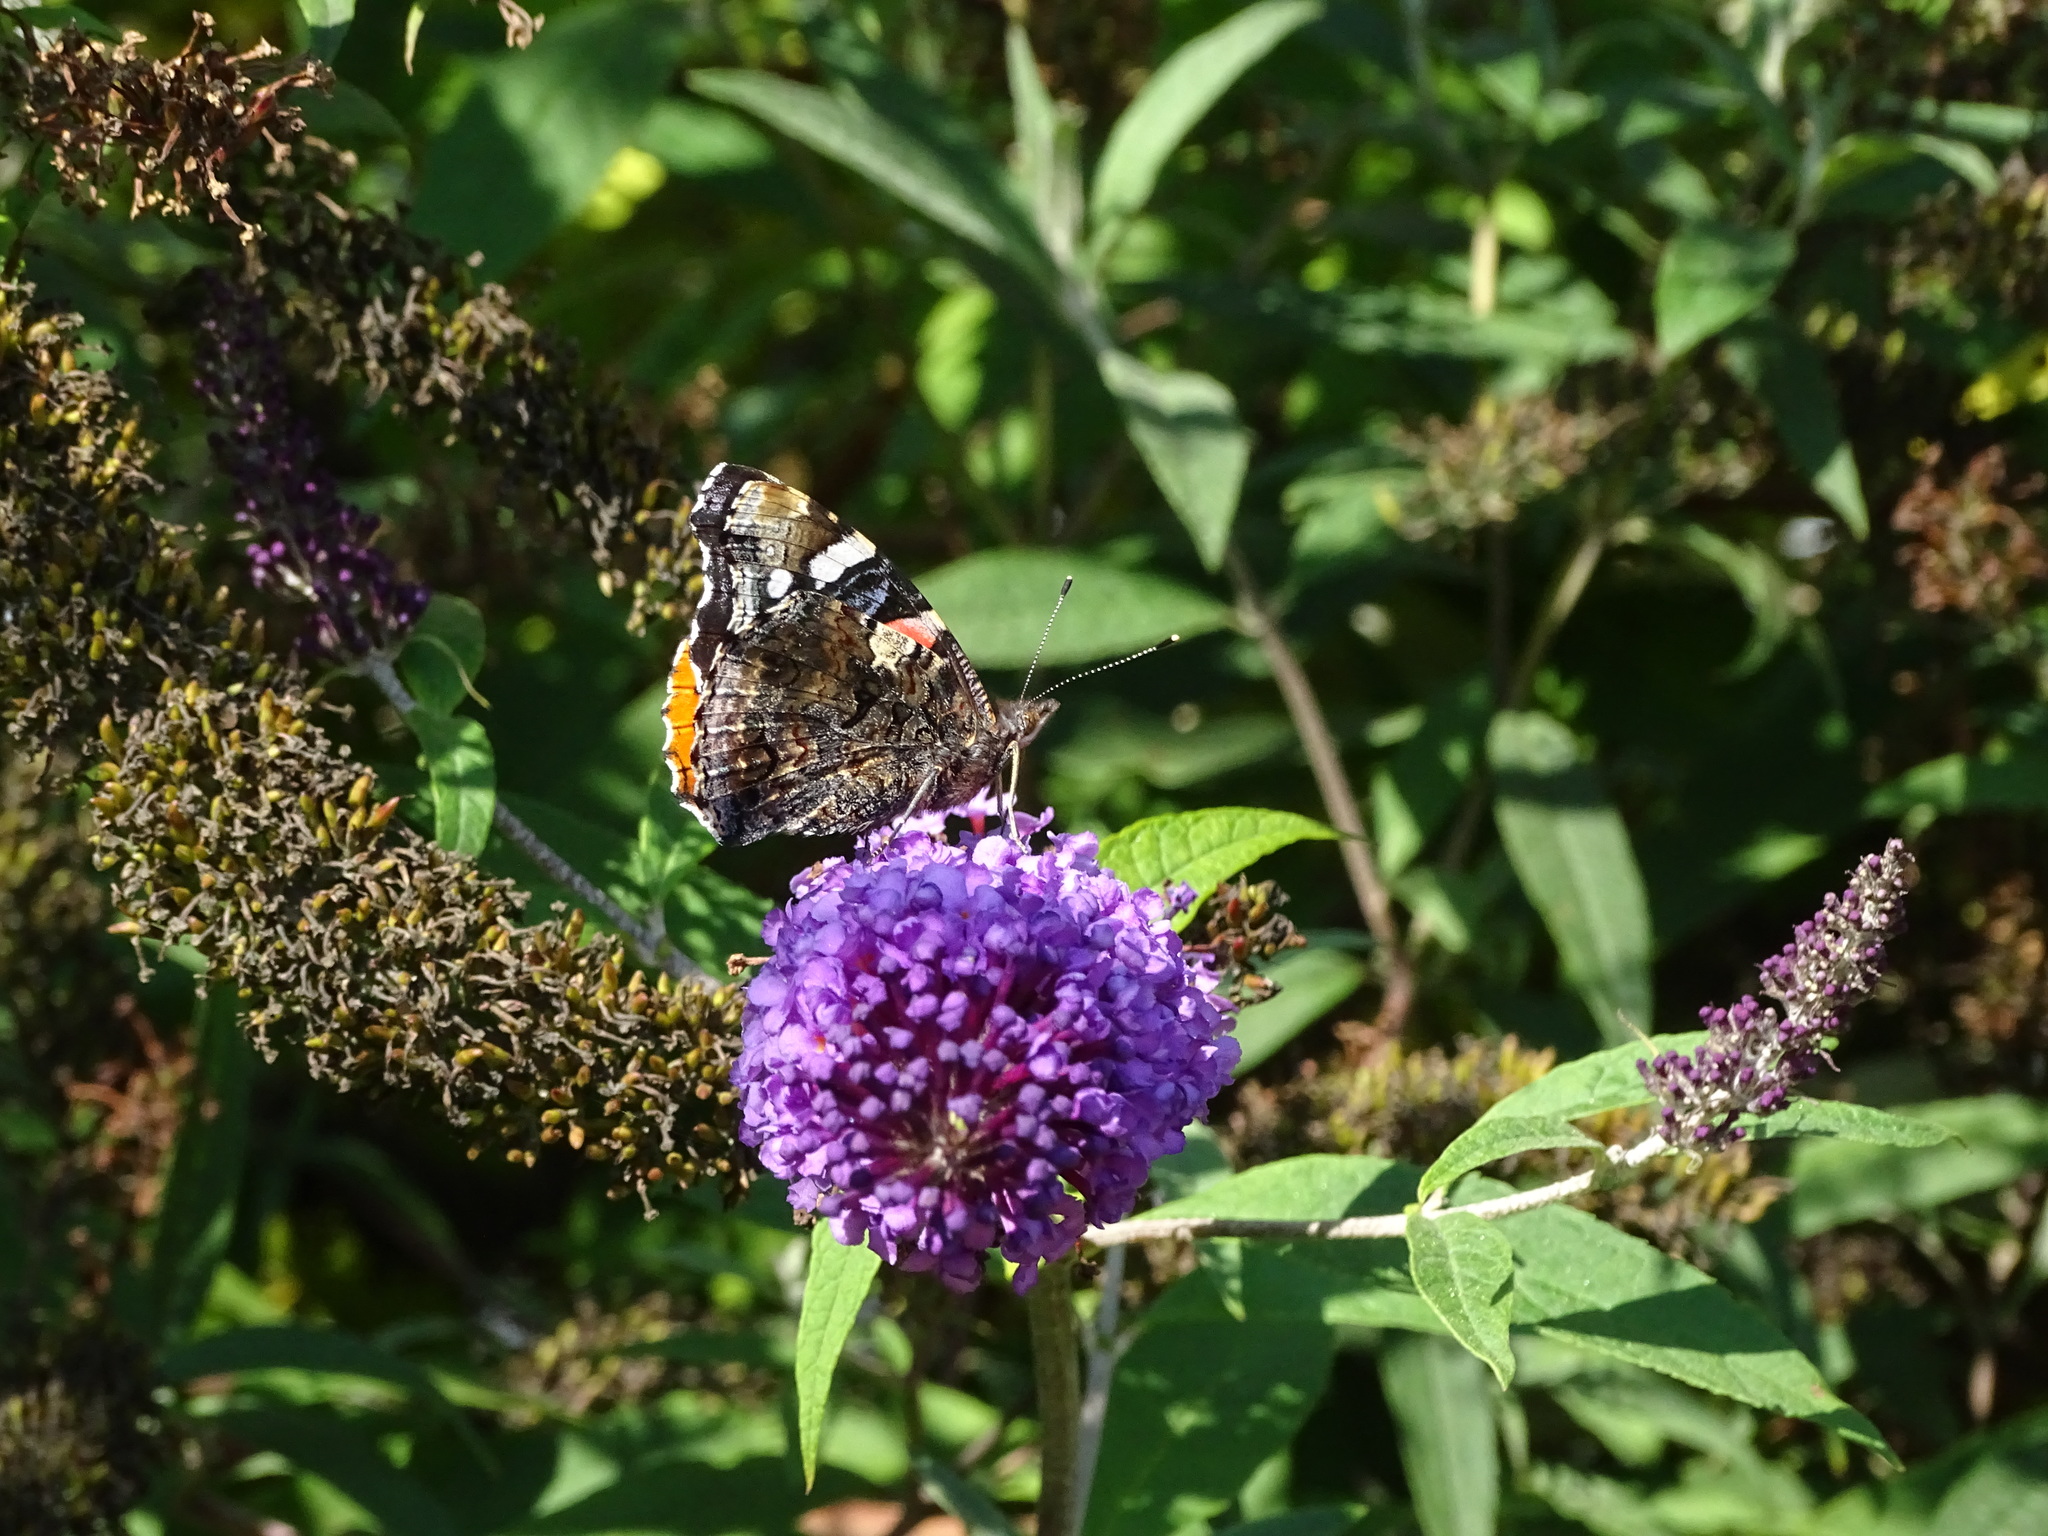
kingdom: Animalia
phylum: Arthropoda
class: Insecta
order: Lepidoptera
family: Nymphalidae
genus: Vanessa
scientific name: Vanessa atalanta
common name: Red admiral
